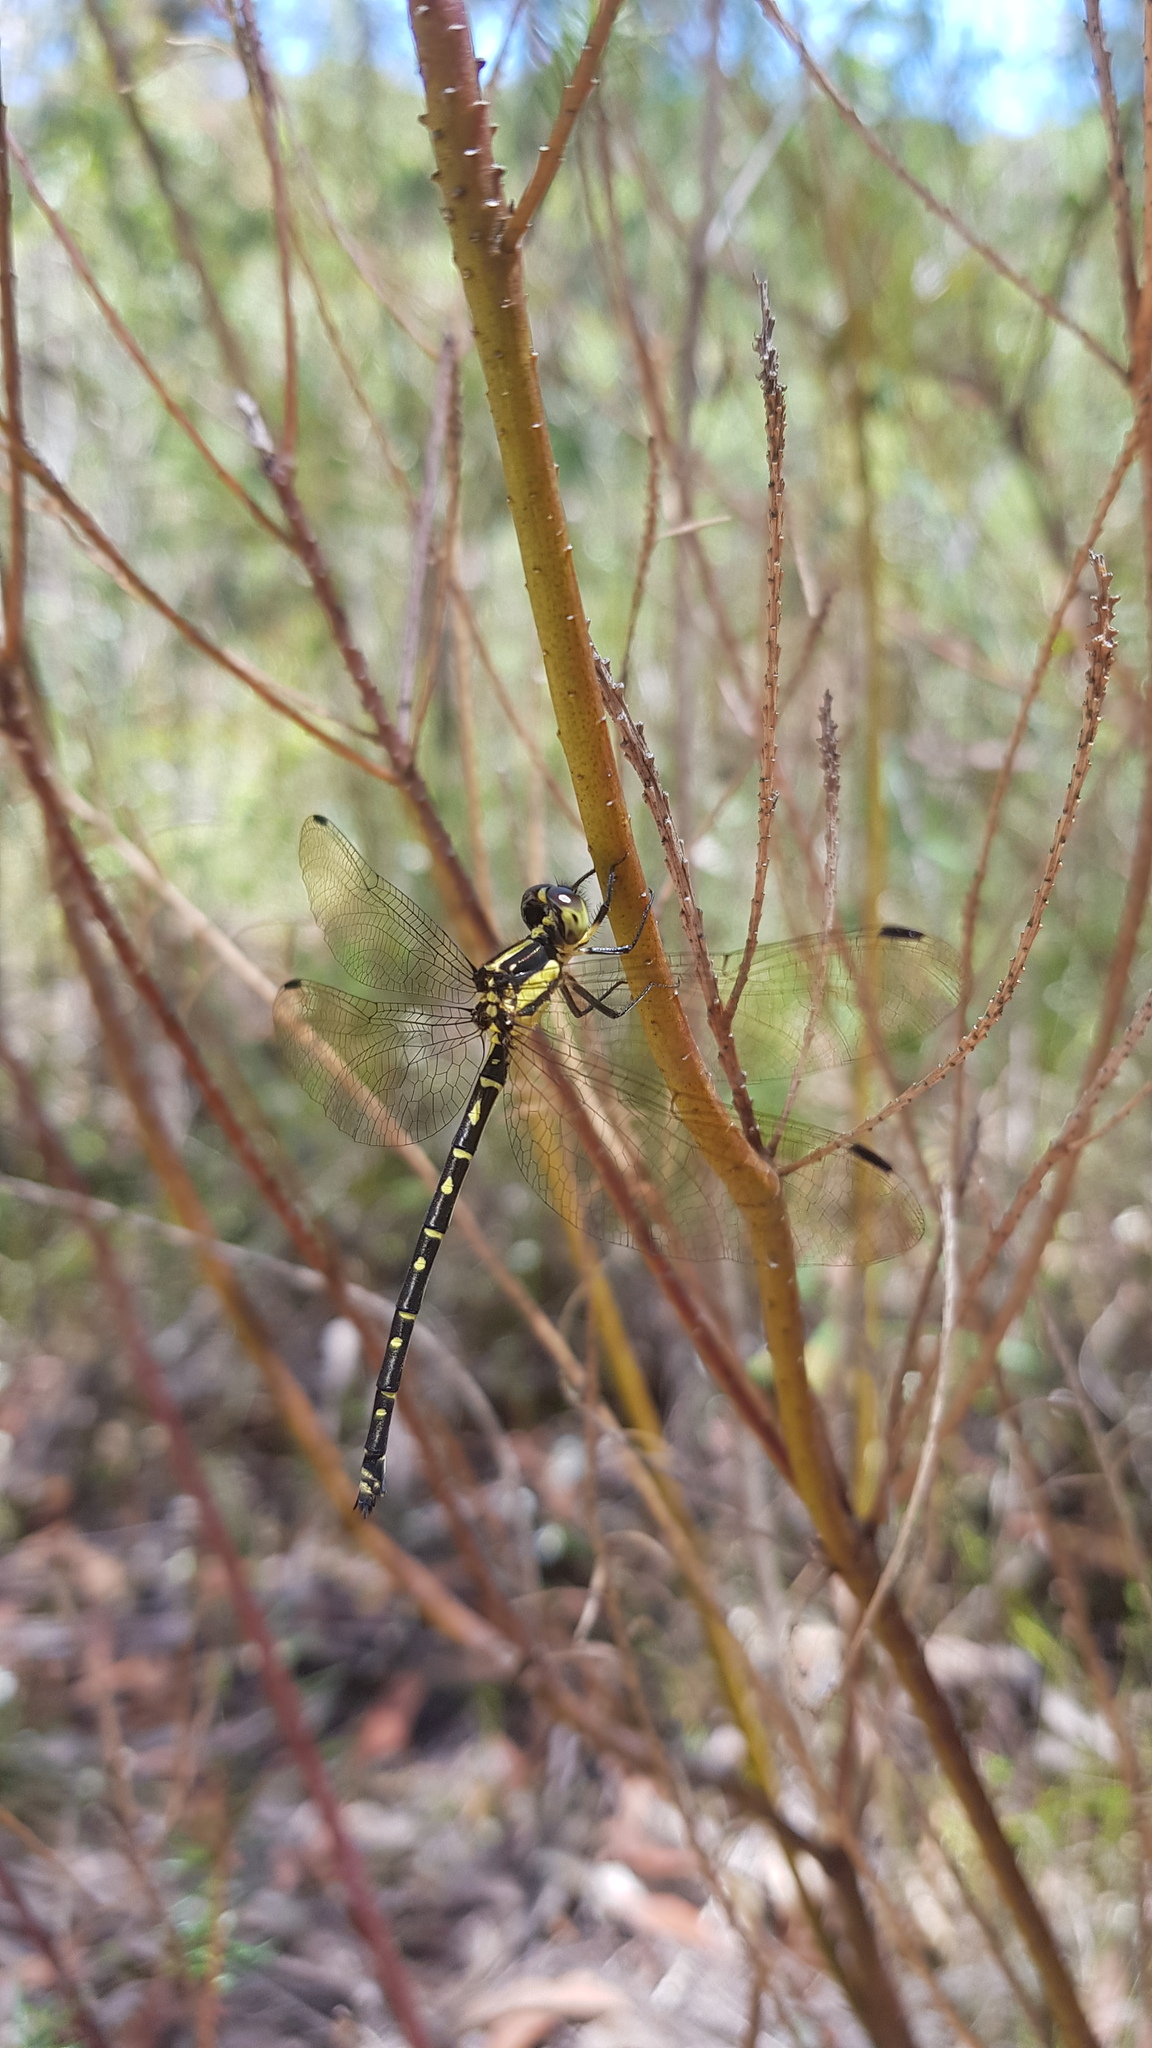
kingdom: Animalia
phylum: Arthropoda
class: Insecta
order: Odonata
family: Synthemistidae
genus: Choristhemis
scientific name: Choristhemis flavoterminata
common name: Yellow-tipped tigertail
